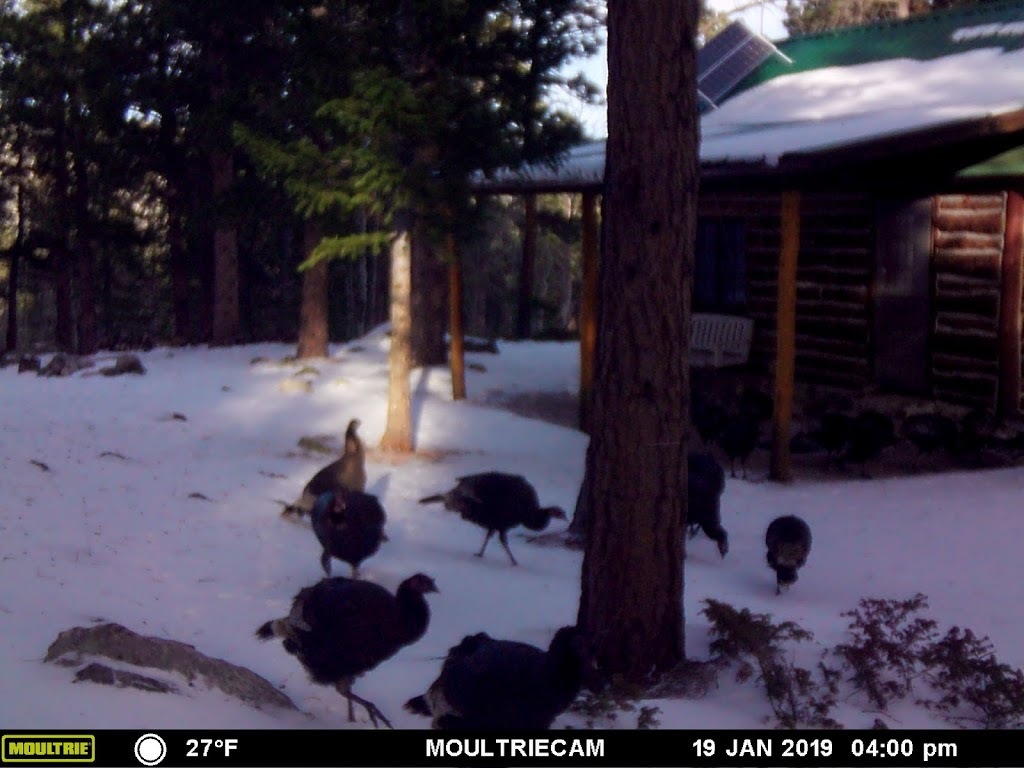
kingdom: Animalia
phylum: Chordata
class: Aves
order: Galliformes
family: Phasianidae
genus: Meleagris
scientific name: Meleagris gallopavo
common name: Wild turkey
